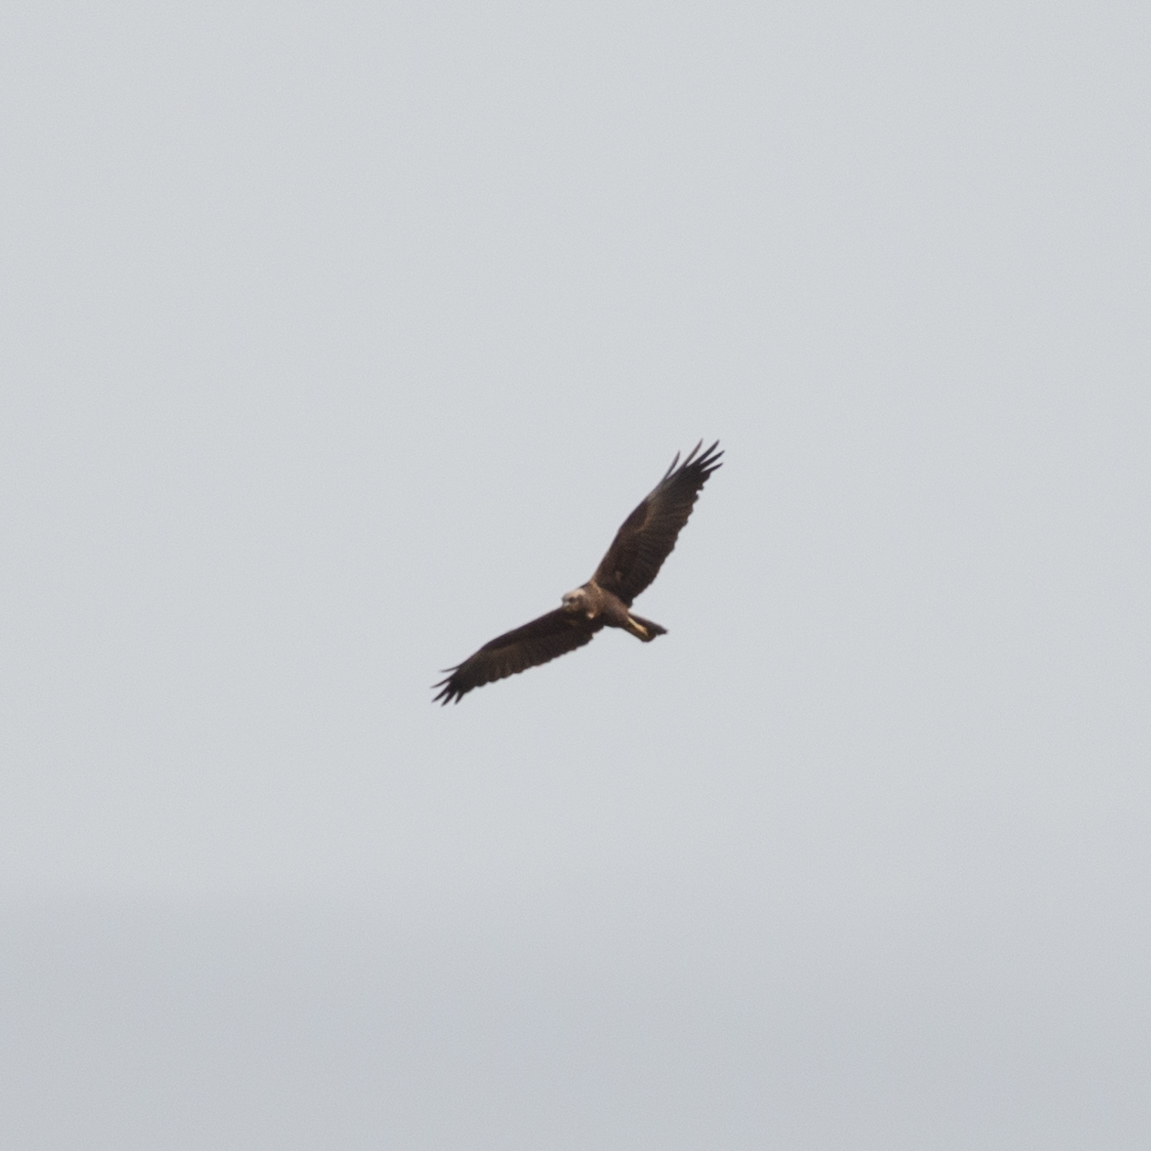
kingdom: Animalia
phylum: Chordata
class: Aves
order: Accipitriformes
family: Accipitridae
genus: Circus
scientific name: Circus aeruginosus
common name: Western marsh harrier
